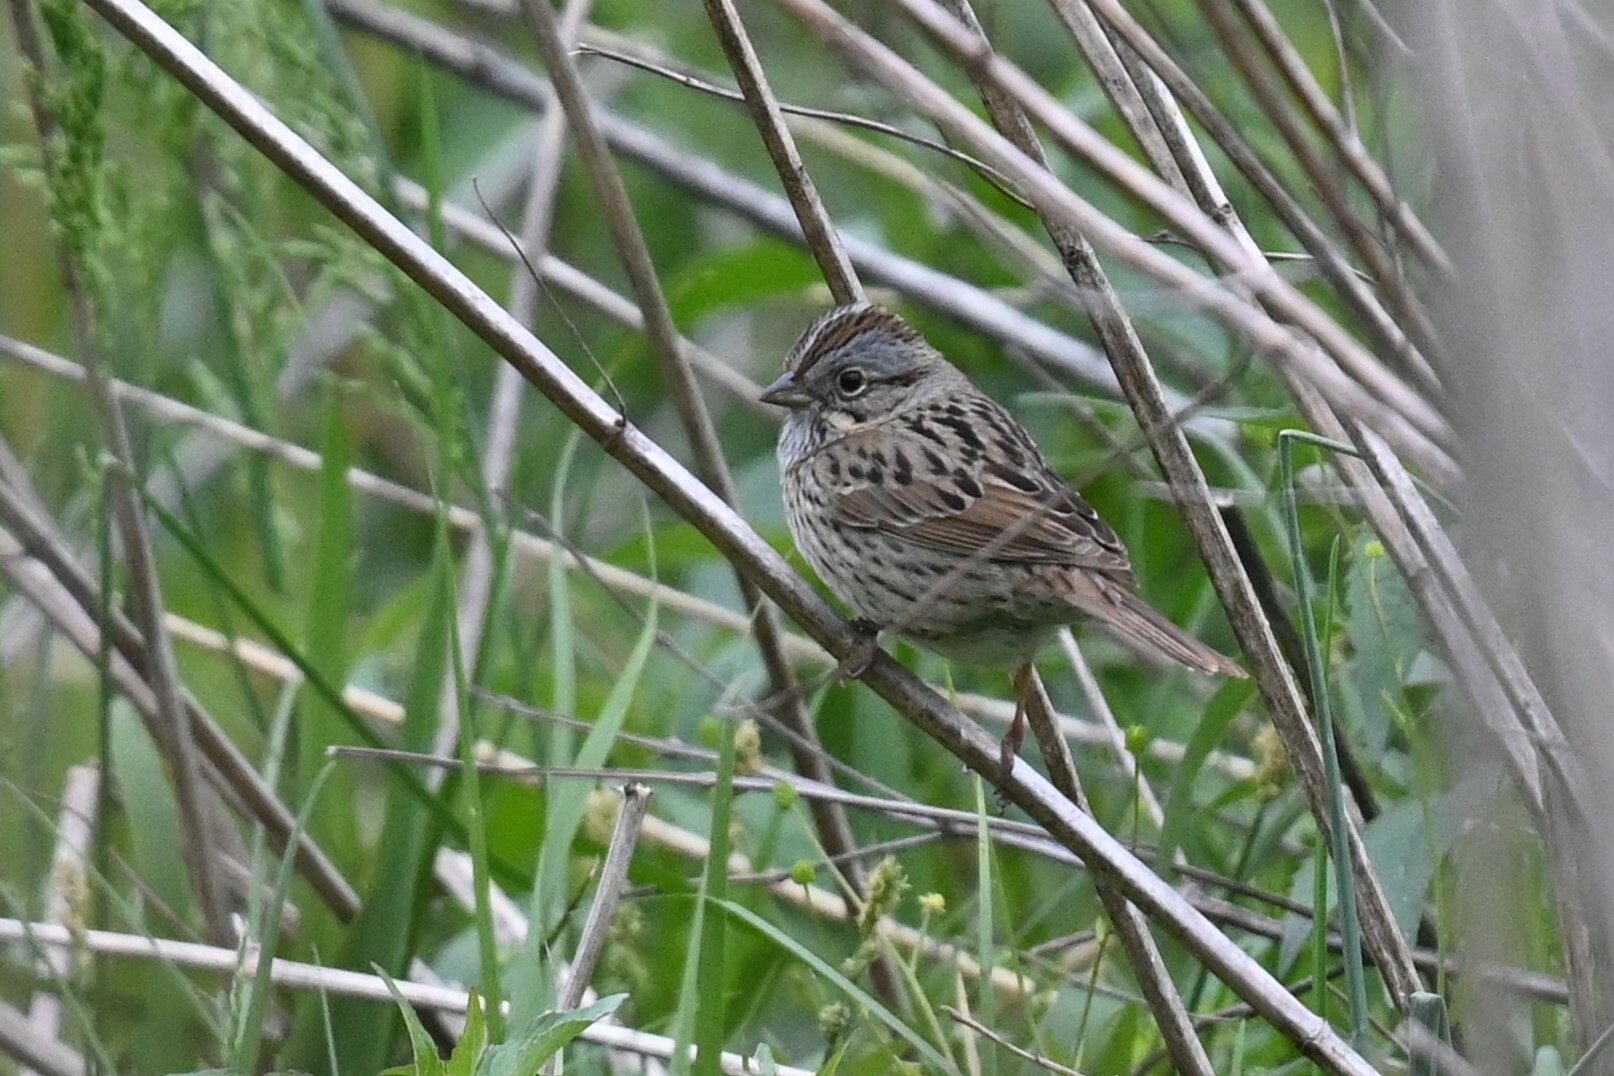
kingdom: Animalia
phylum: Chordata
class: Aves
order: Passeriformes
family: Passerellidae
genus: Melospiza
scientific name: Melospiza lincolnii
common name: Lincoln's sparrow
